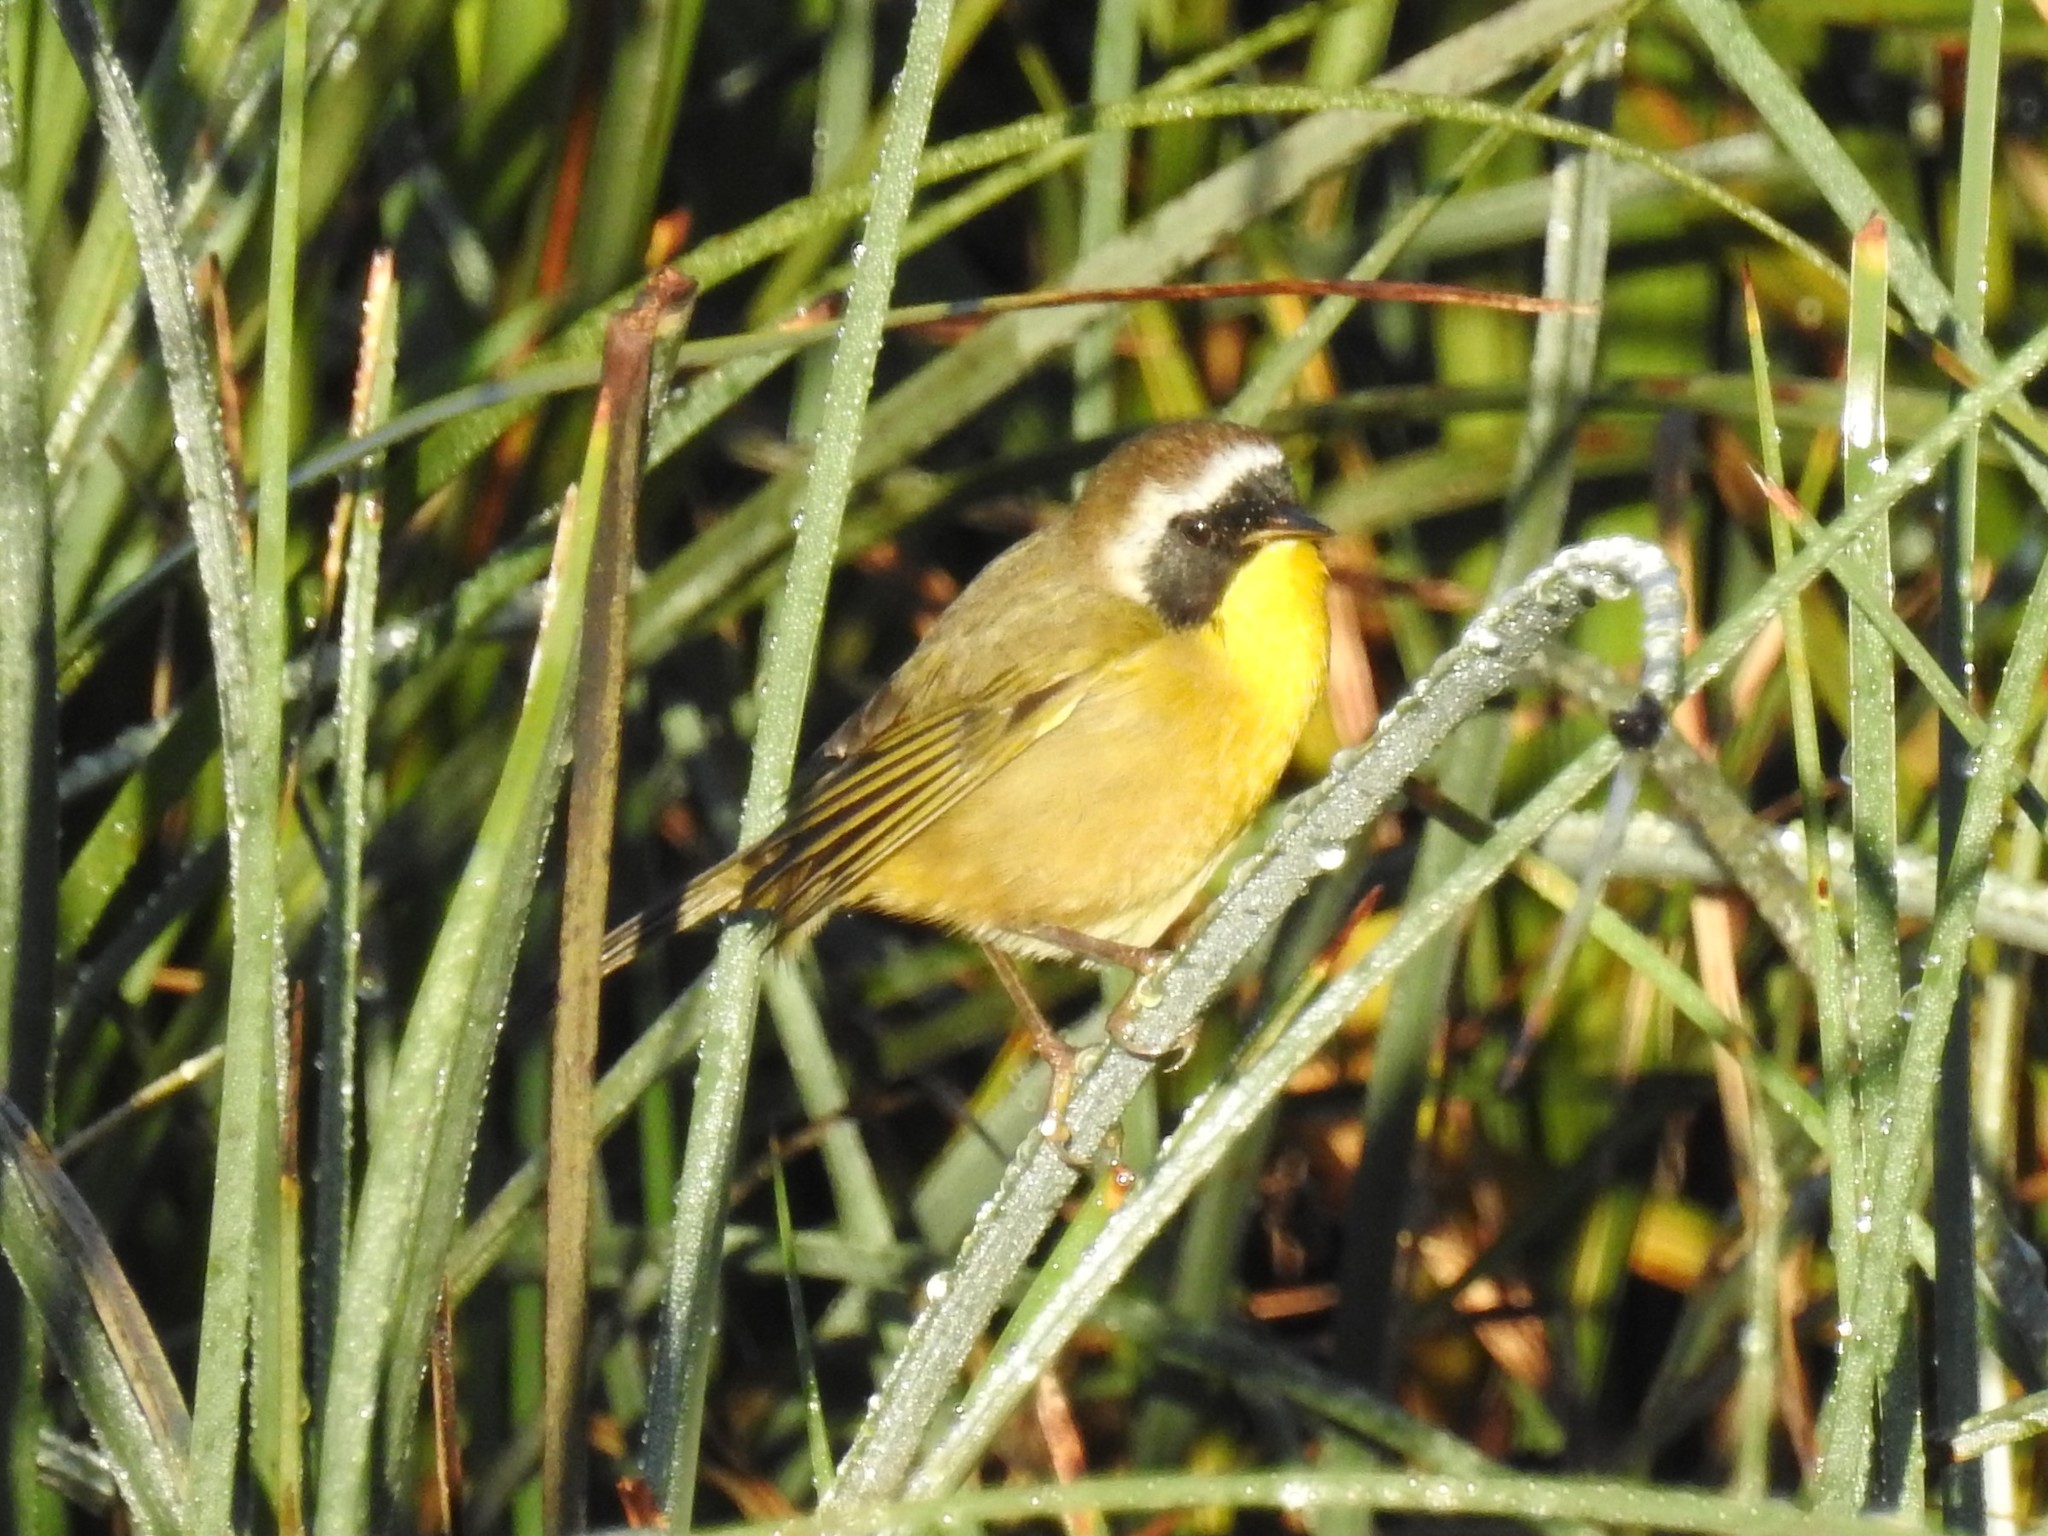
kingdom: Animalia
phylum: Chordata
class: Aves
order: Passeriformes
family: Parulidae
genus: Geothlypis
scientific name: Geothlypis trichas
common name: Common yellowthroat
